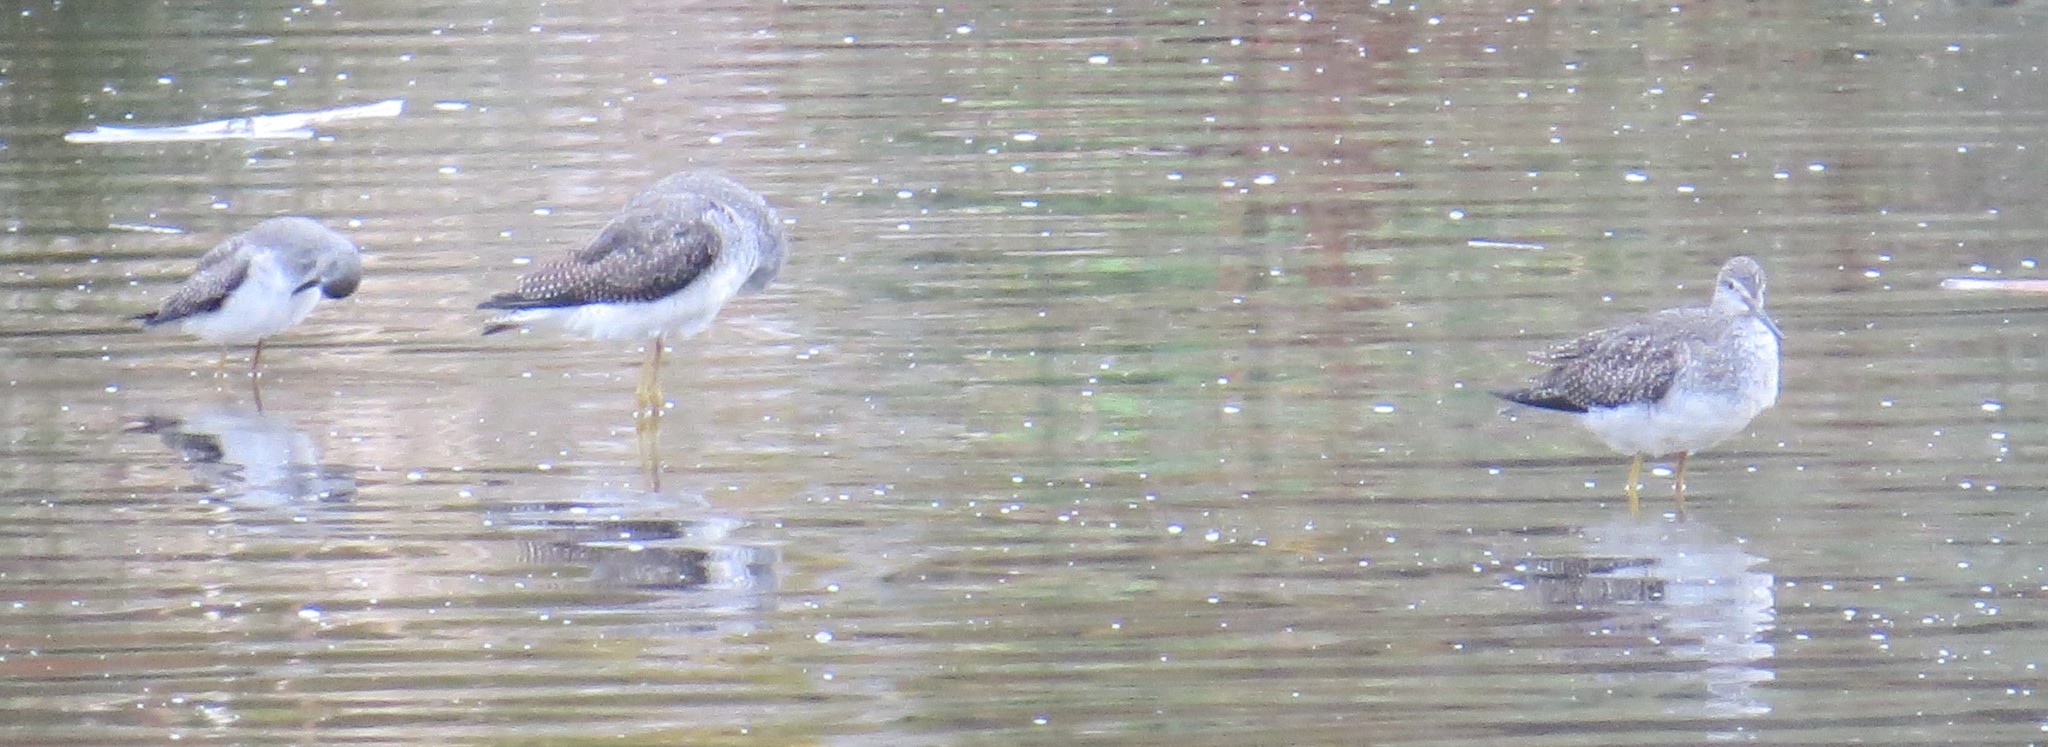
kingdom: Animalia
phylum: Chordata
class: Aves
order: Charadriiformes
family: Scolopacidae
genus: Tringa
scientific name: Tringa melanoleuca
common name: Greater yellowlegs
